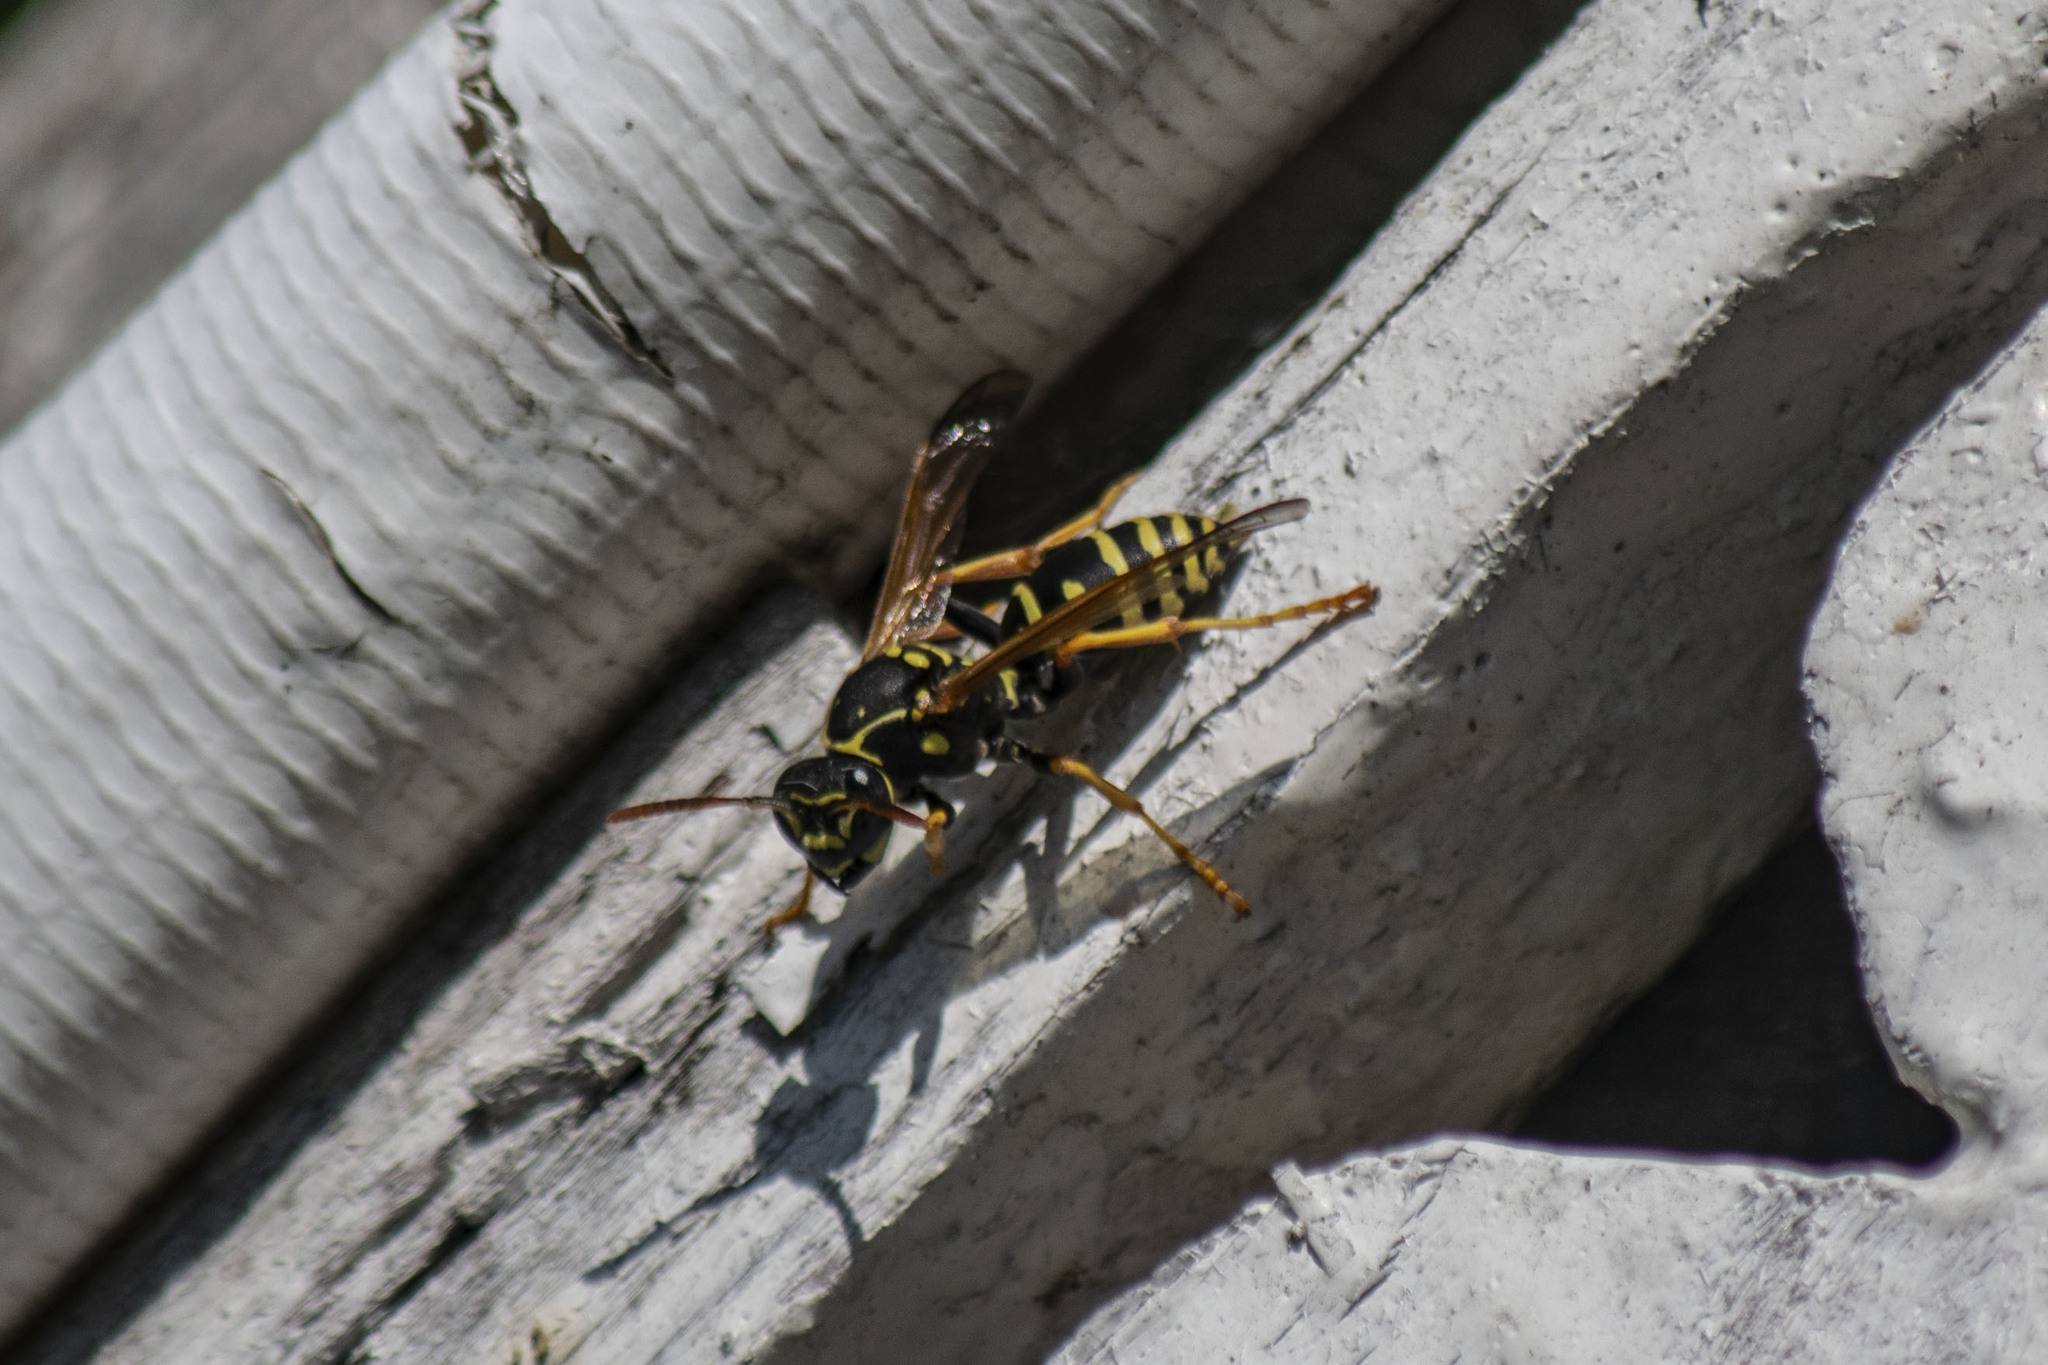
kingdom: Animalia
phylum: Arthropoda
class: Insecta
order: Hymenoptera
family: Eumenidae
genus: Polistes
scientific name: Polistes nimpha
